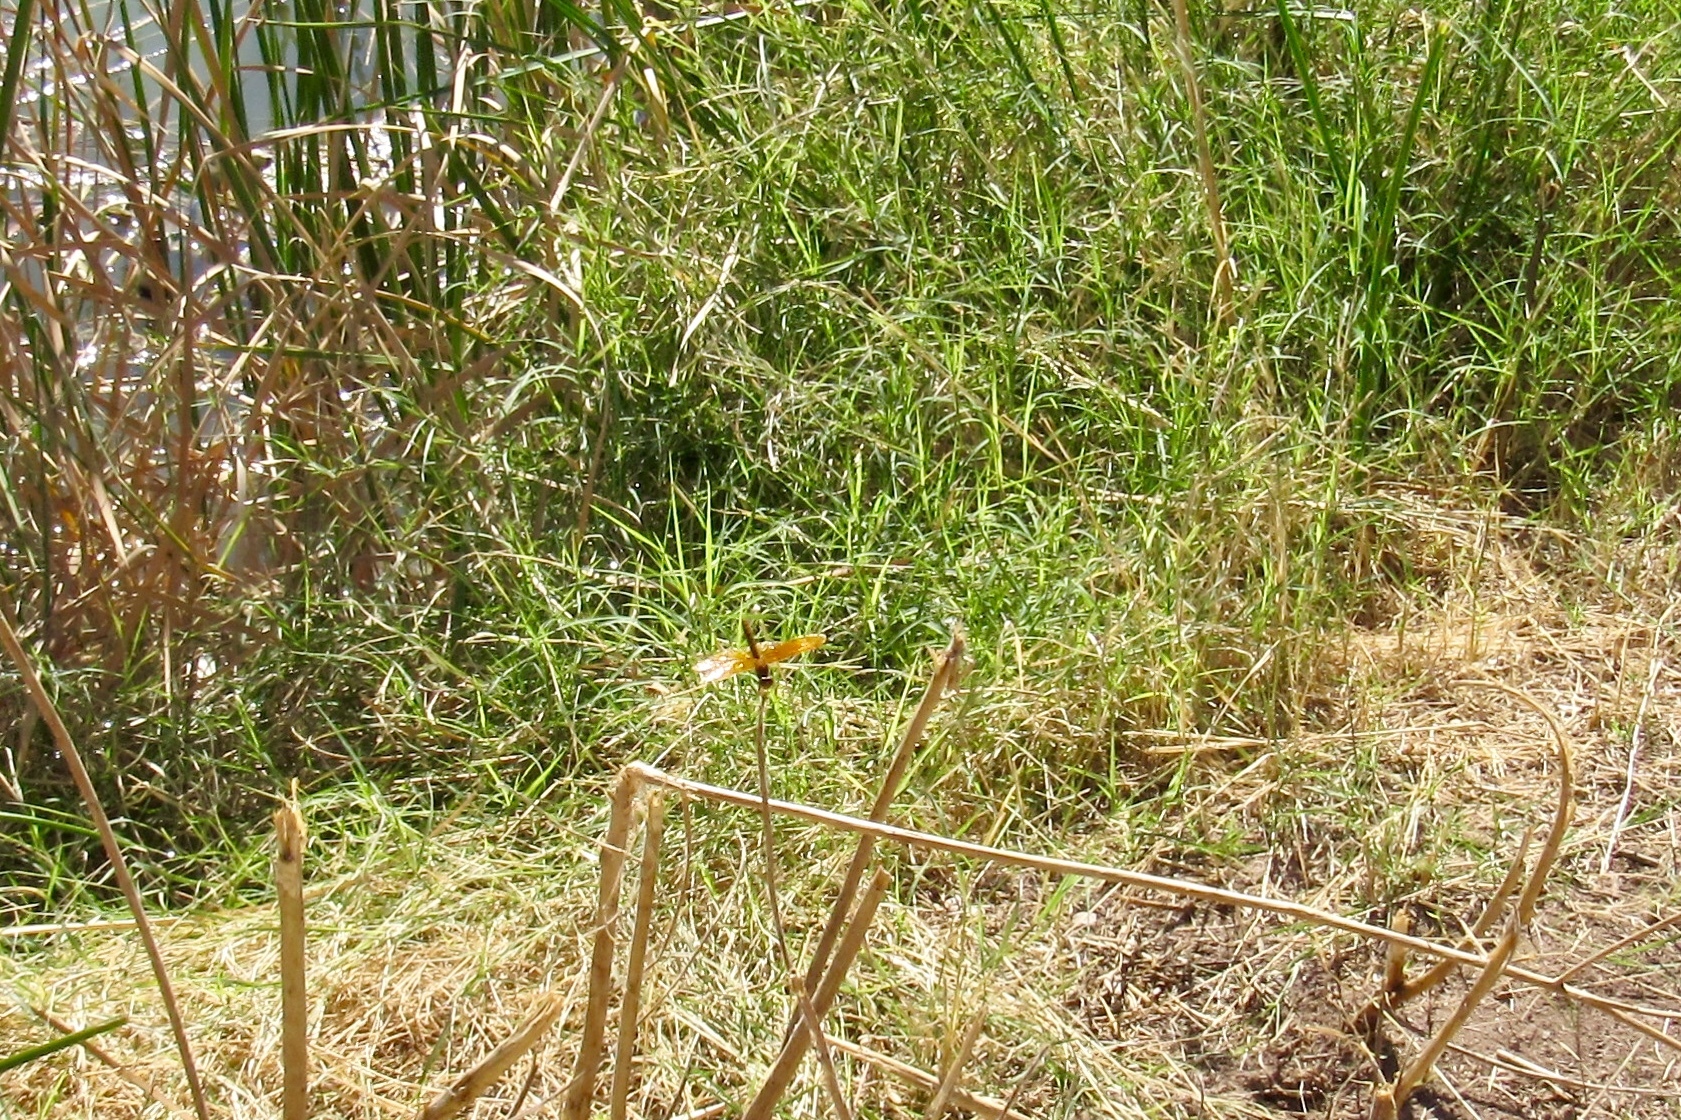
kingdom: Animalia
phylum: Arthropoda
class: Insecta
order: Odonata
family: Libellulidae
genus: Perithemis
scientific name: Perithemis intensa
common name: Mexican amberwing
